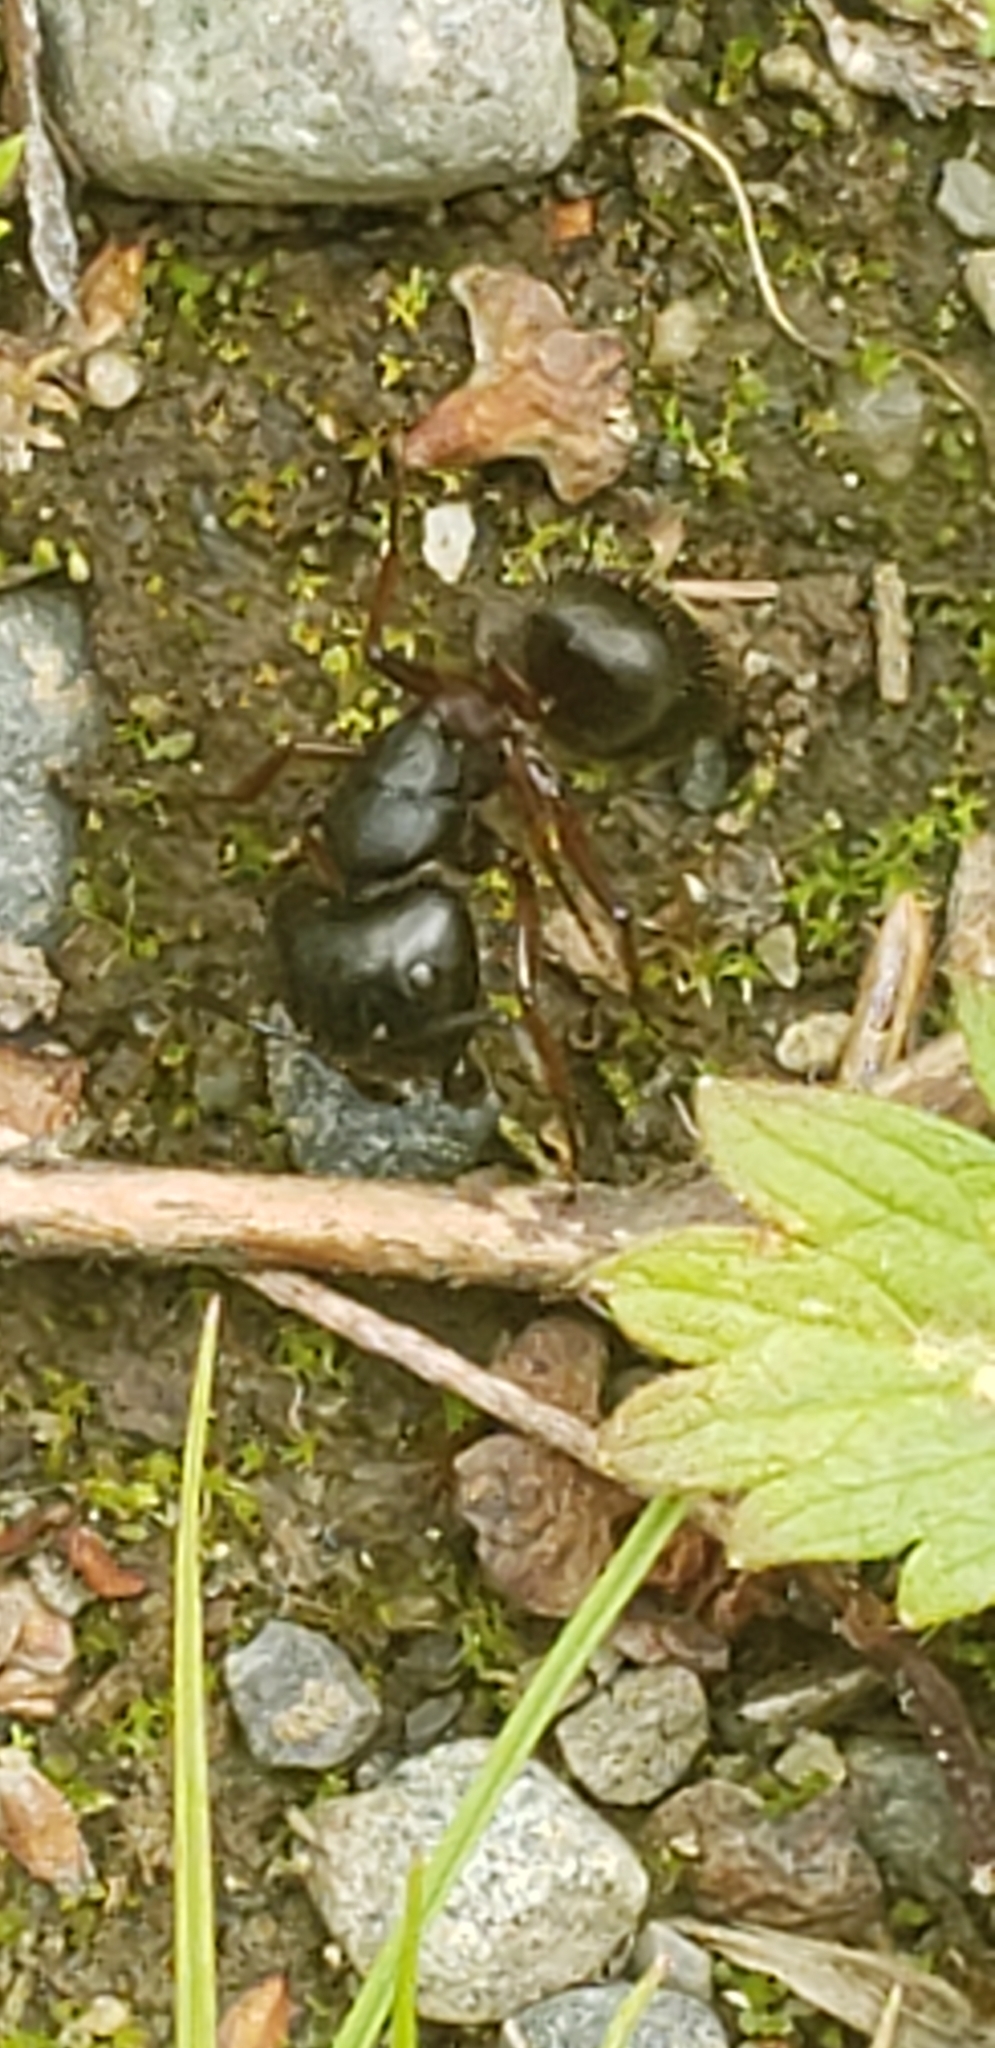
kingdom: Animalia
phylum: Arthropoda
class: Insecta
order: Hymenoptera
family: Formicidae
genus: Camponotus
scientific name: Camponotus herculeanus
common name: Hercules ant
